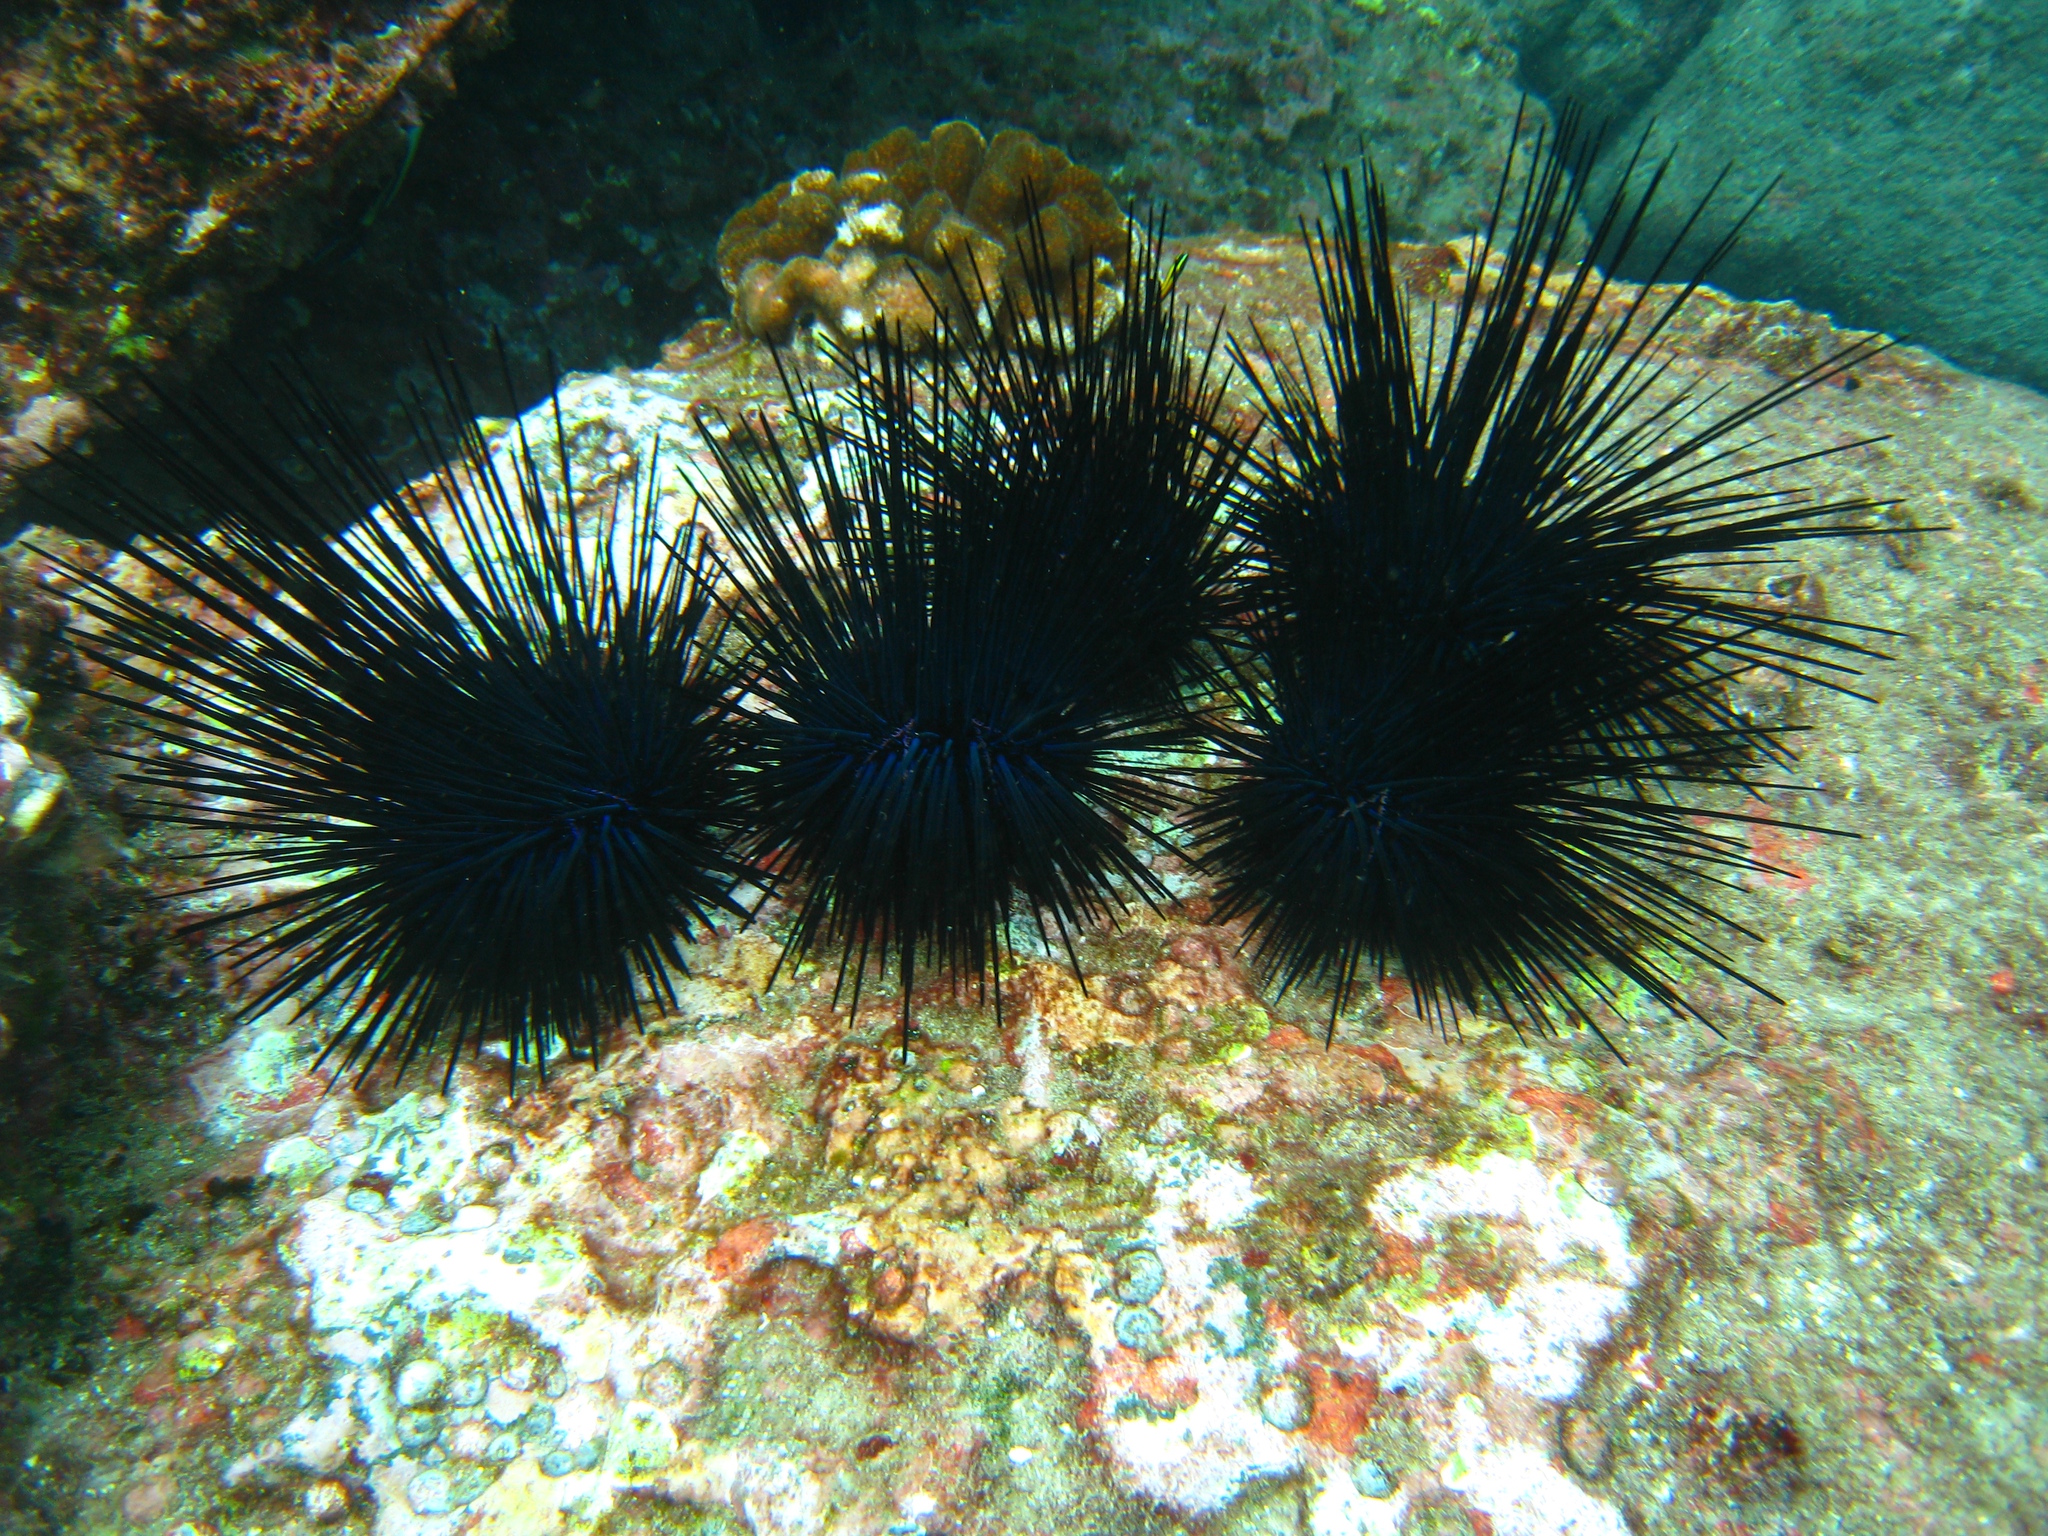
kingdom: Animalia
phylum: Echinodermata
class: Echinoidea
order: Diadematoida
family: Diadematidae
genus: Diadema
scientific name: Diadema mexicanum
